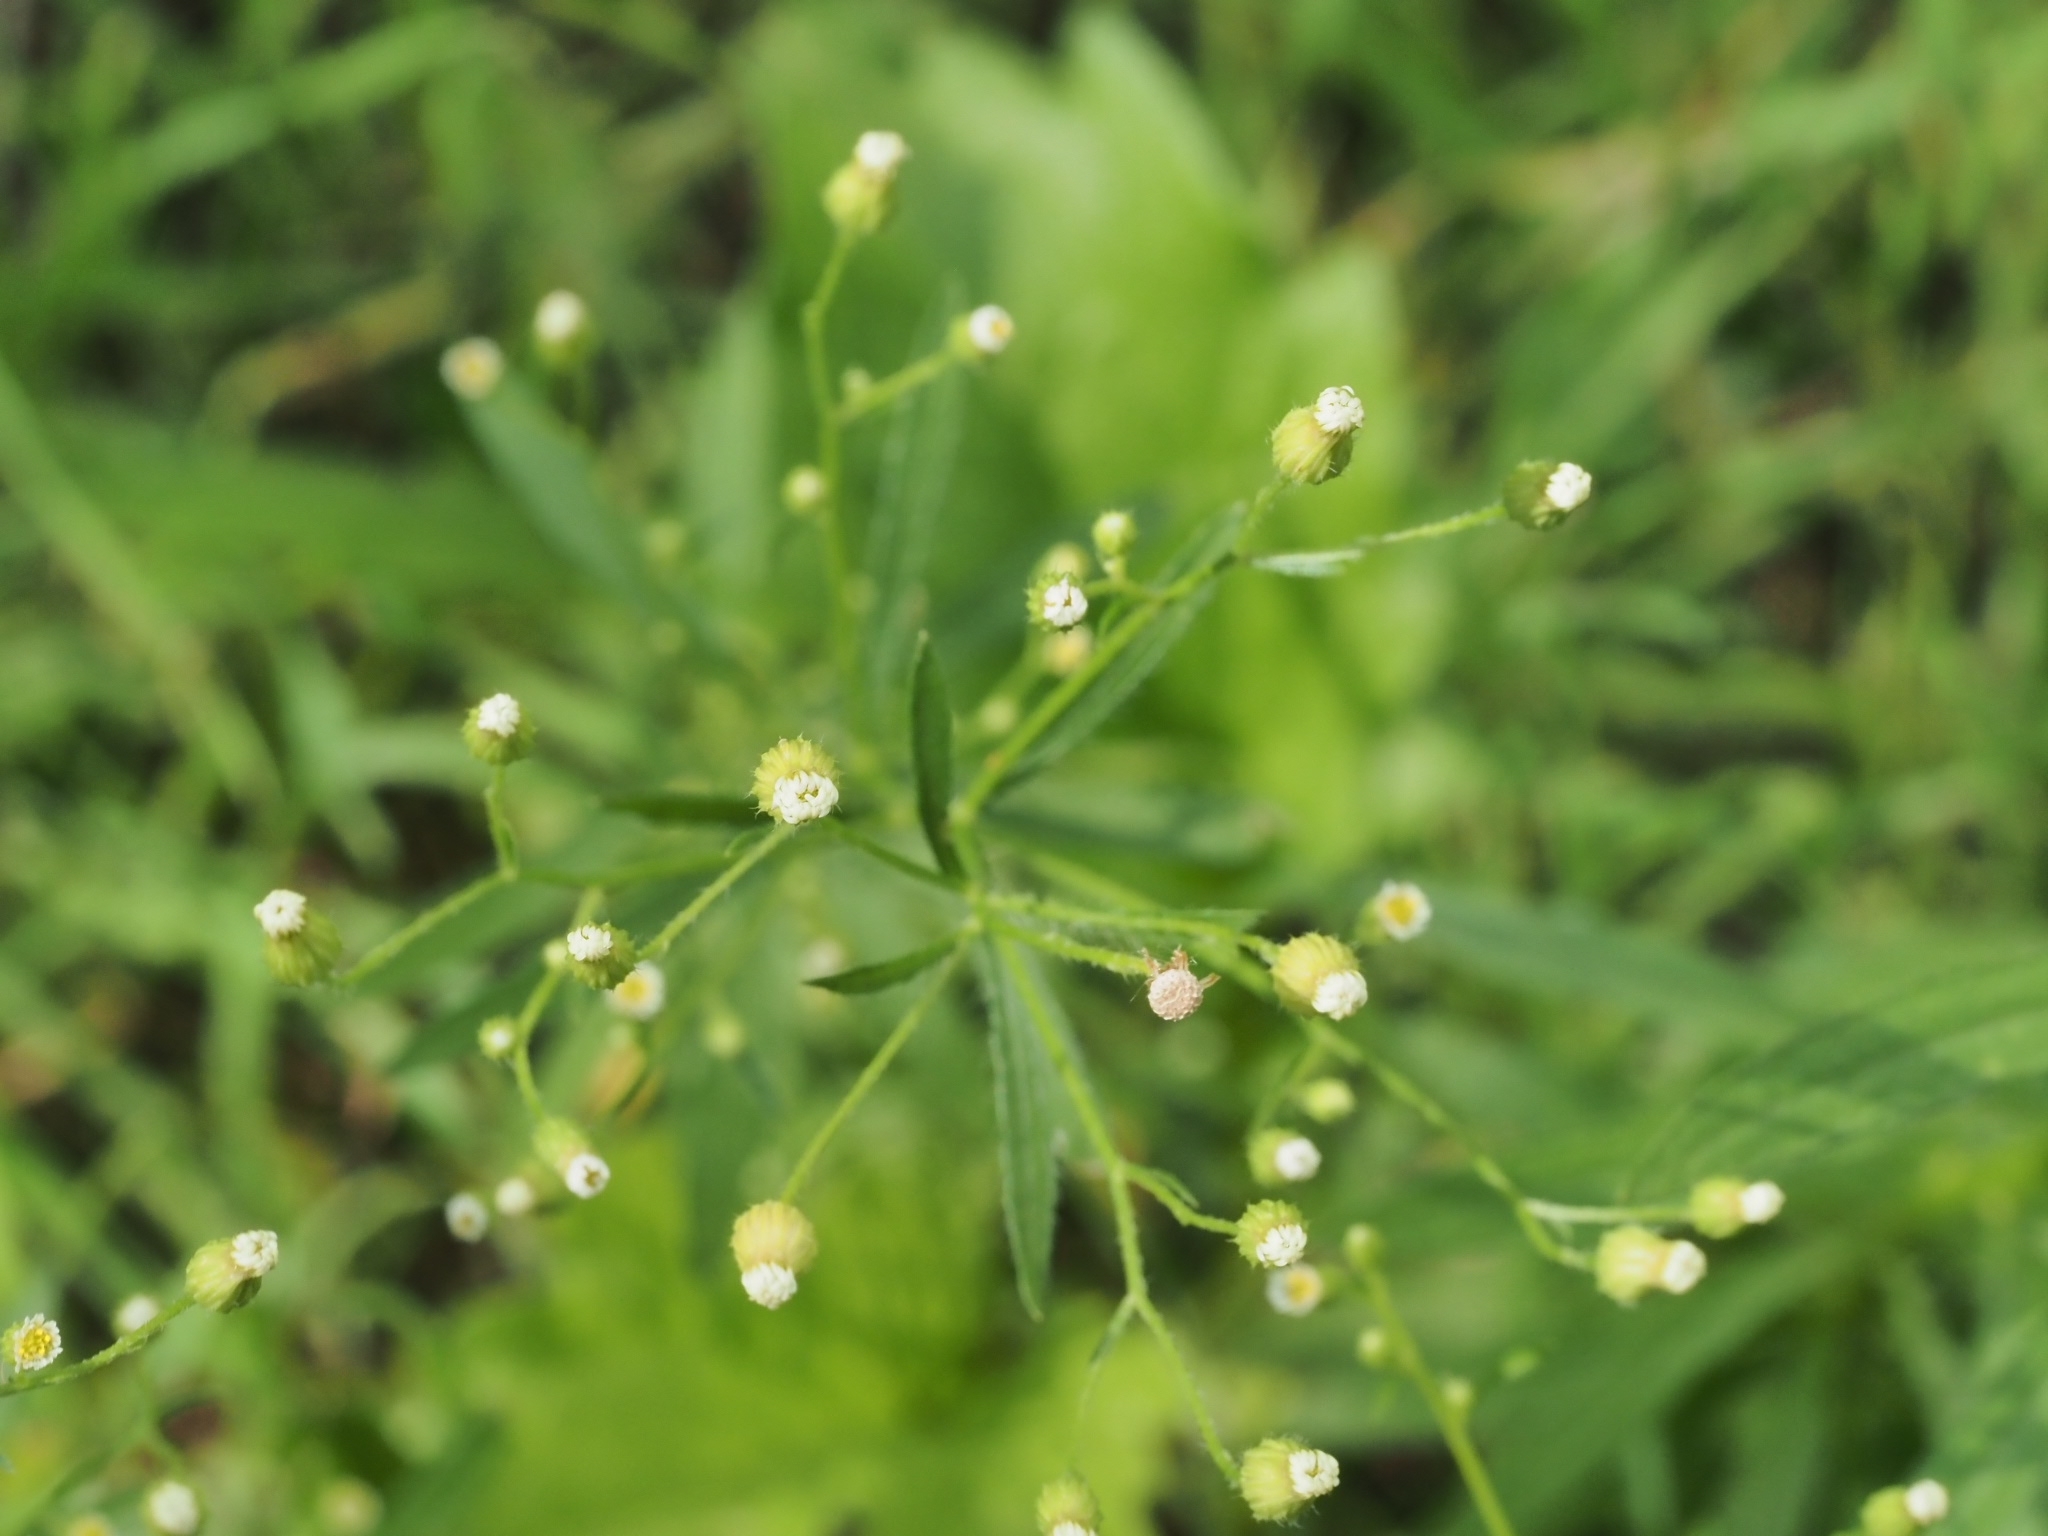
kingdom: Plantae
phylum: Tracheophyta
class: Magnoliopsida
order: Asterales
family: Asteraceae
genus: Erigeron
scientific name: Erigeron canadensis
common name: Canadian fleabane
